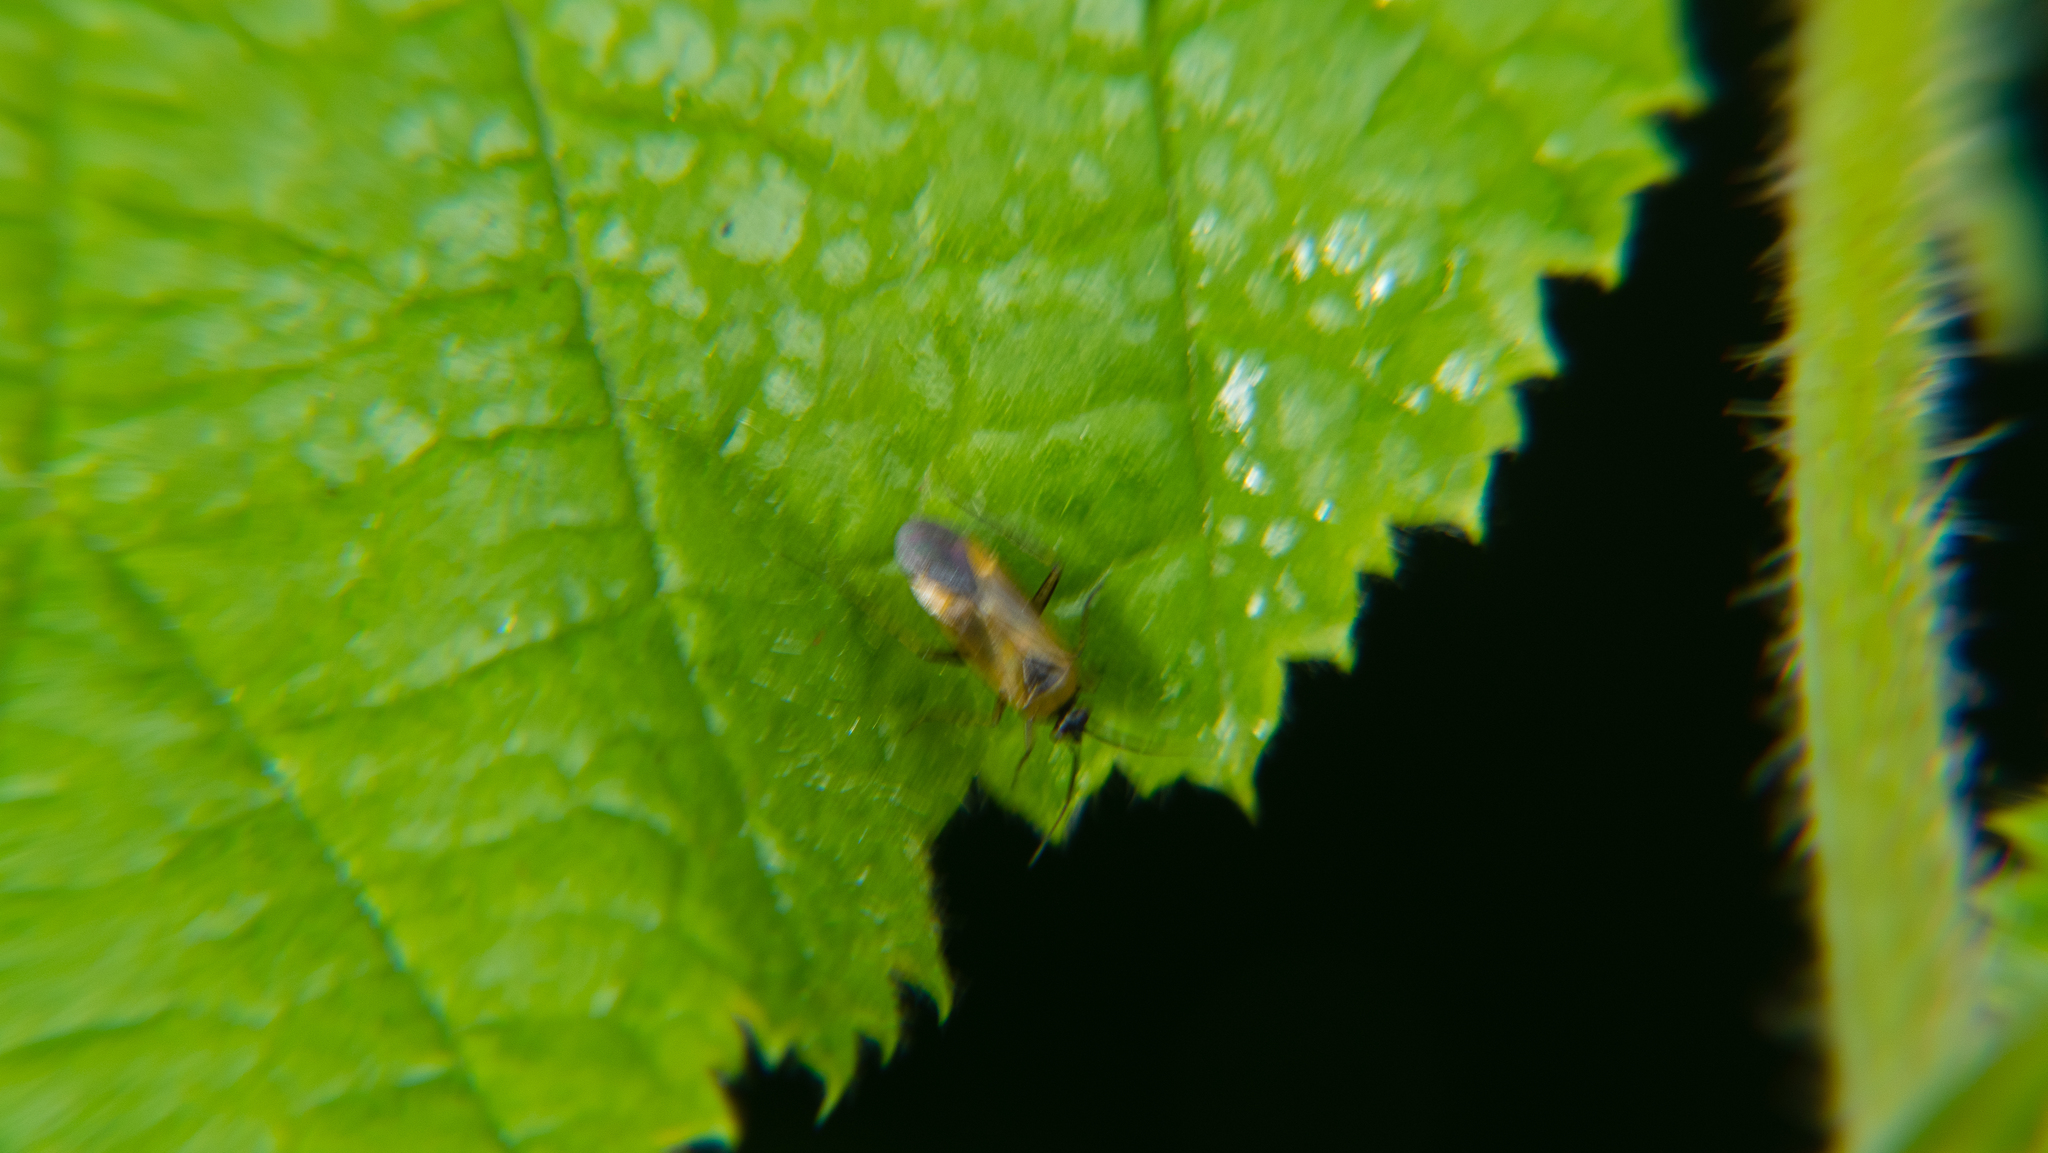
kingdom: Animalia
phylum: Arthropoda
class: Insecta
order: Hemiptera
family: Miridae
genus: Plagiognathus
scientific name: Plagiognathus arbustorum
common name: Plant bug
